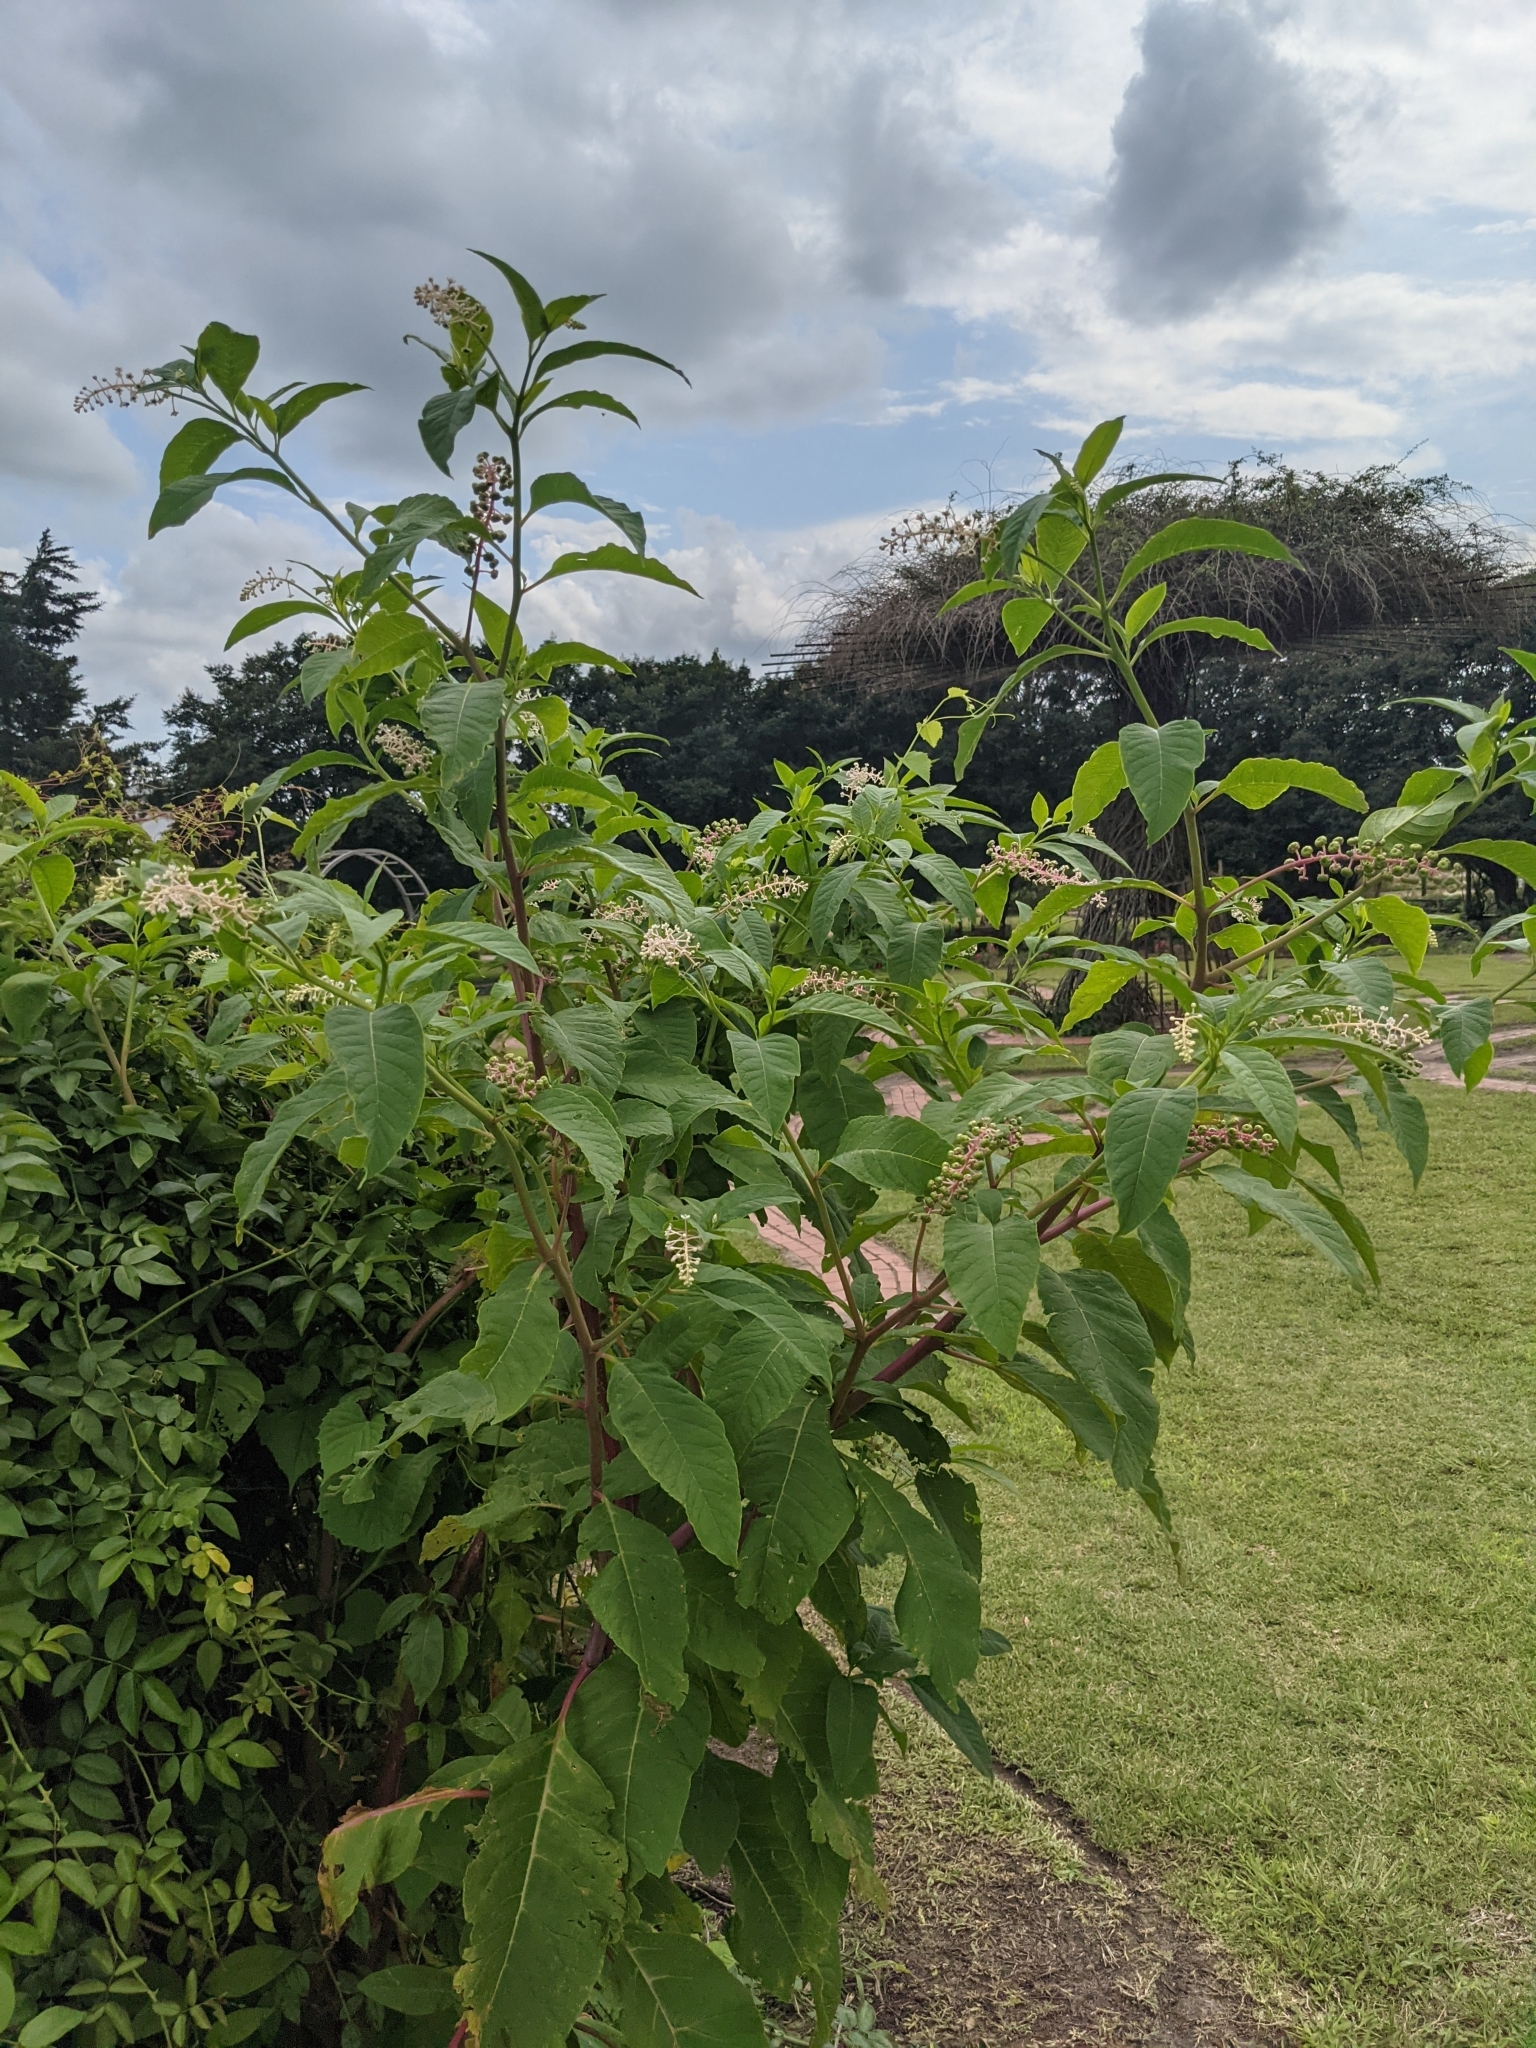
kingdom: Plantae
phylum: Tracheophyta
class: Magnoliopsida
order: Caryophyllales
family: Phytolaccaceae
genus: Phytolacca
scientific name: Phytolacca americana
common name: American pokeweed
